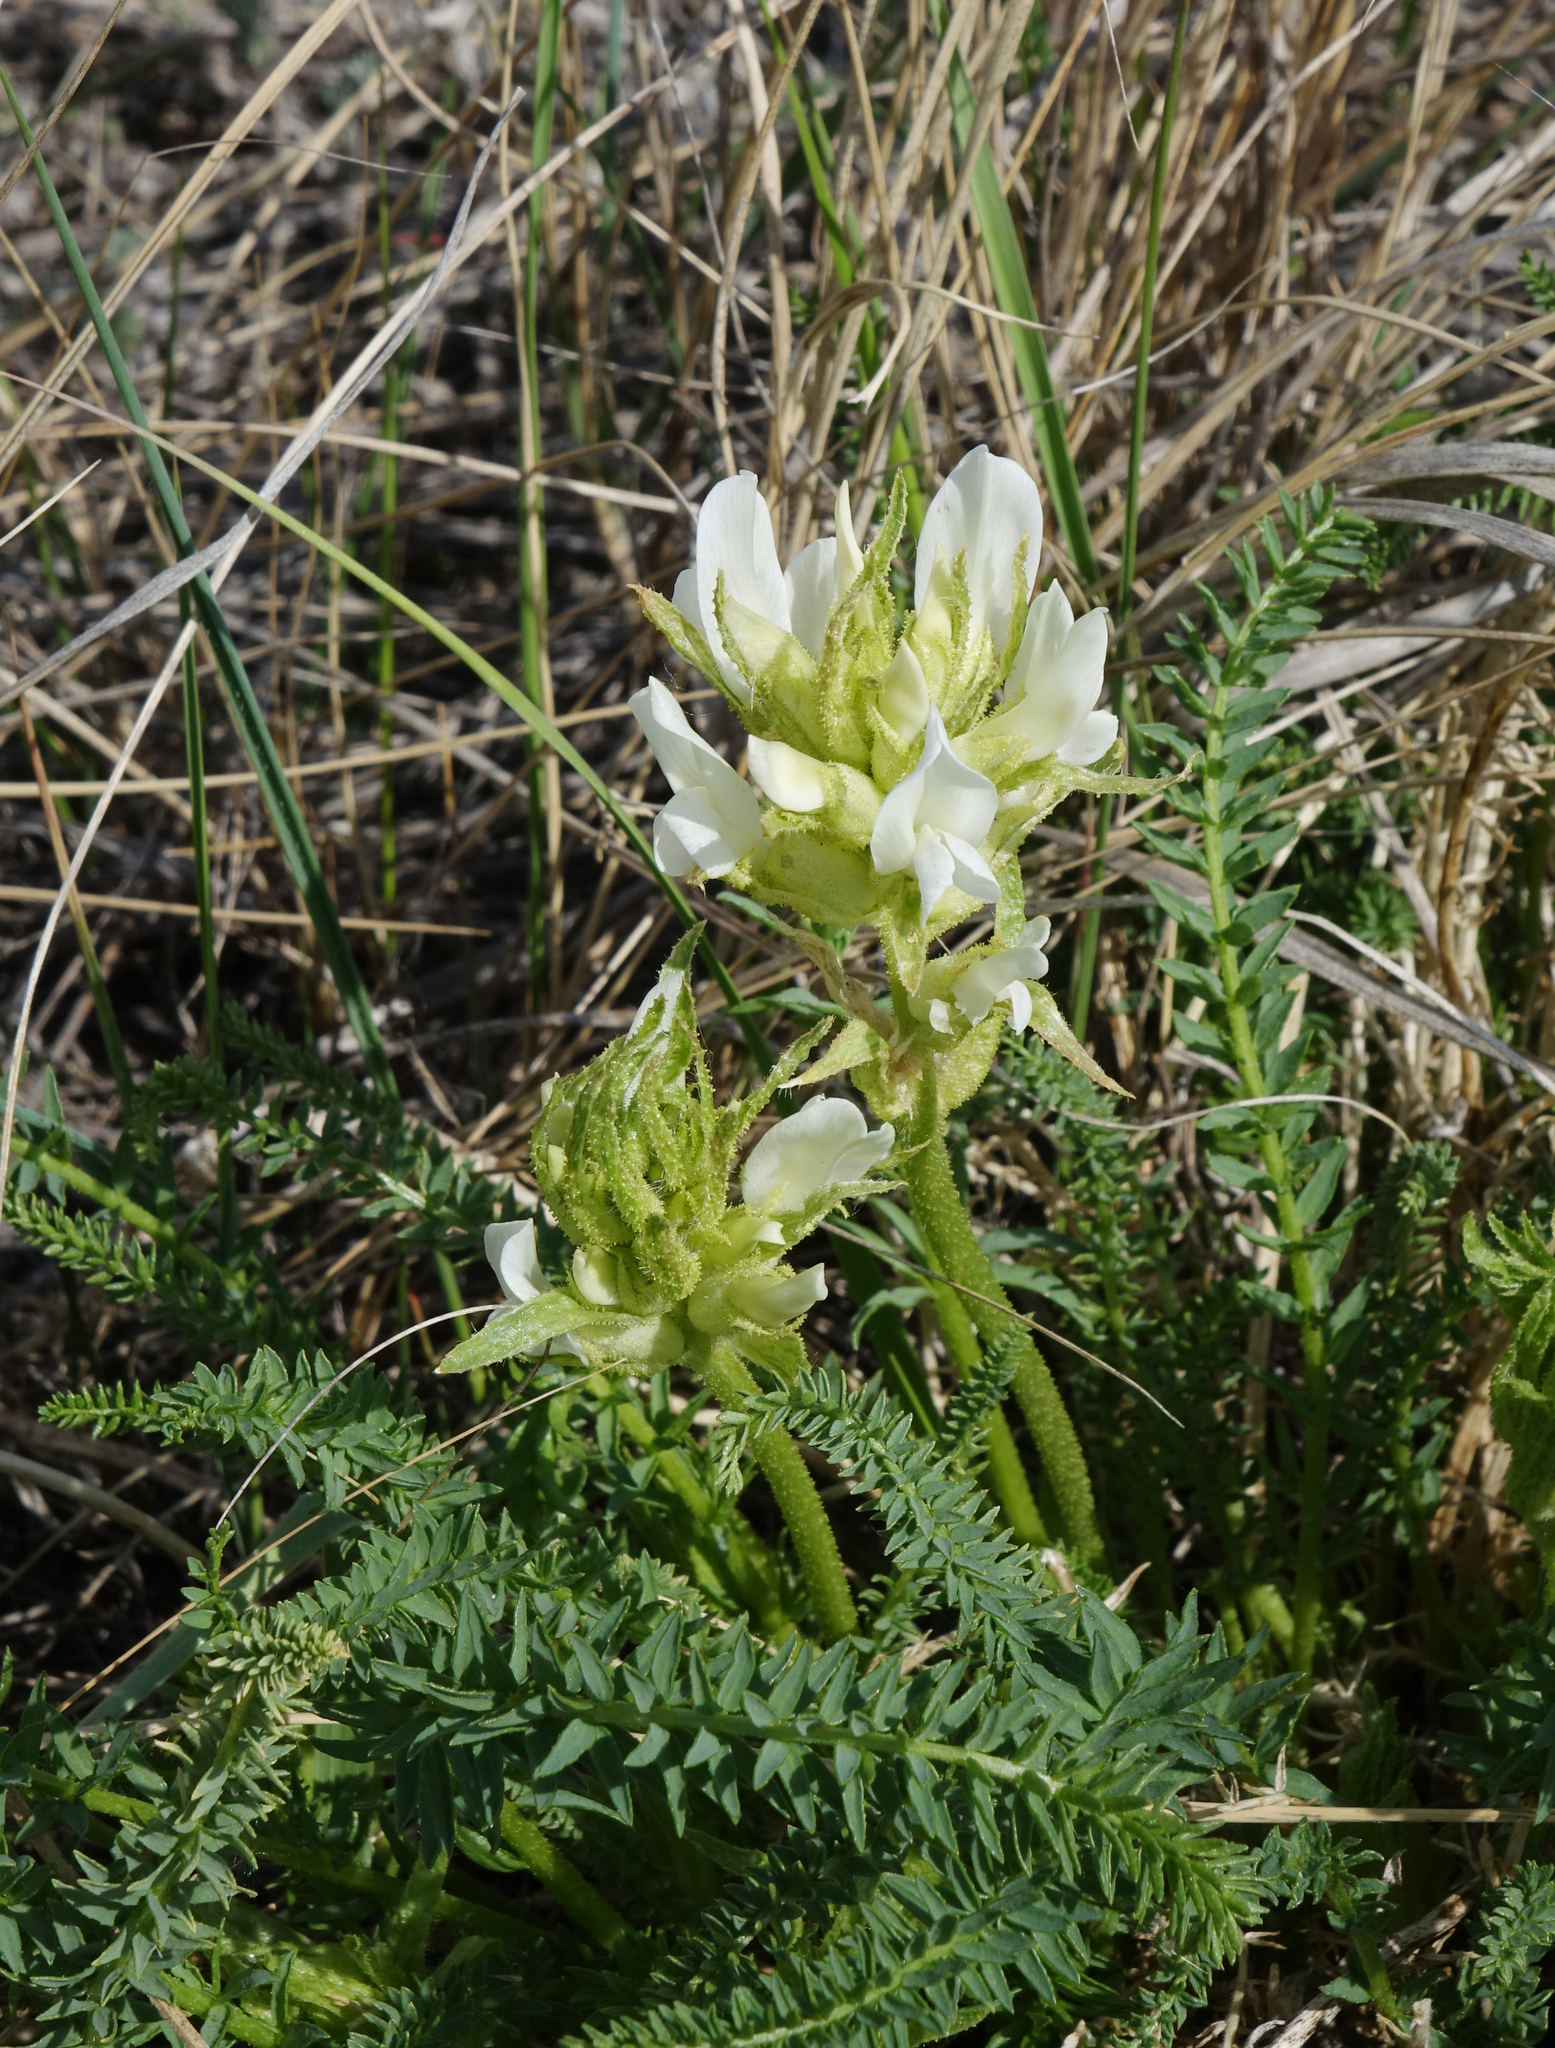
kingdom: Plantae
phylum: Tracheophyta
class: Magnoliopsida
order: Fabales
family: Fabaceae
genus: Oxytropis
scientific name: Oxytropis muricata
